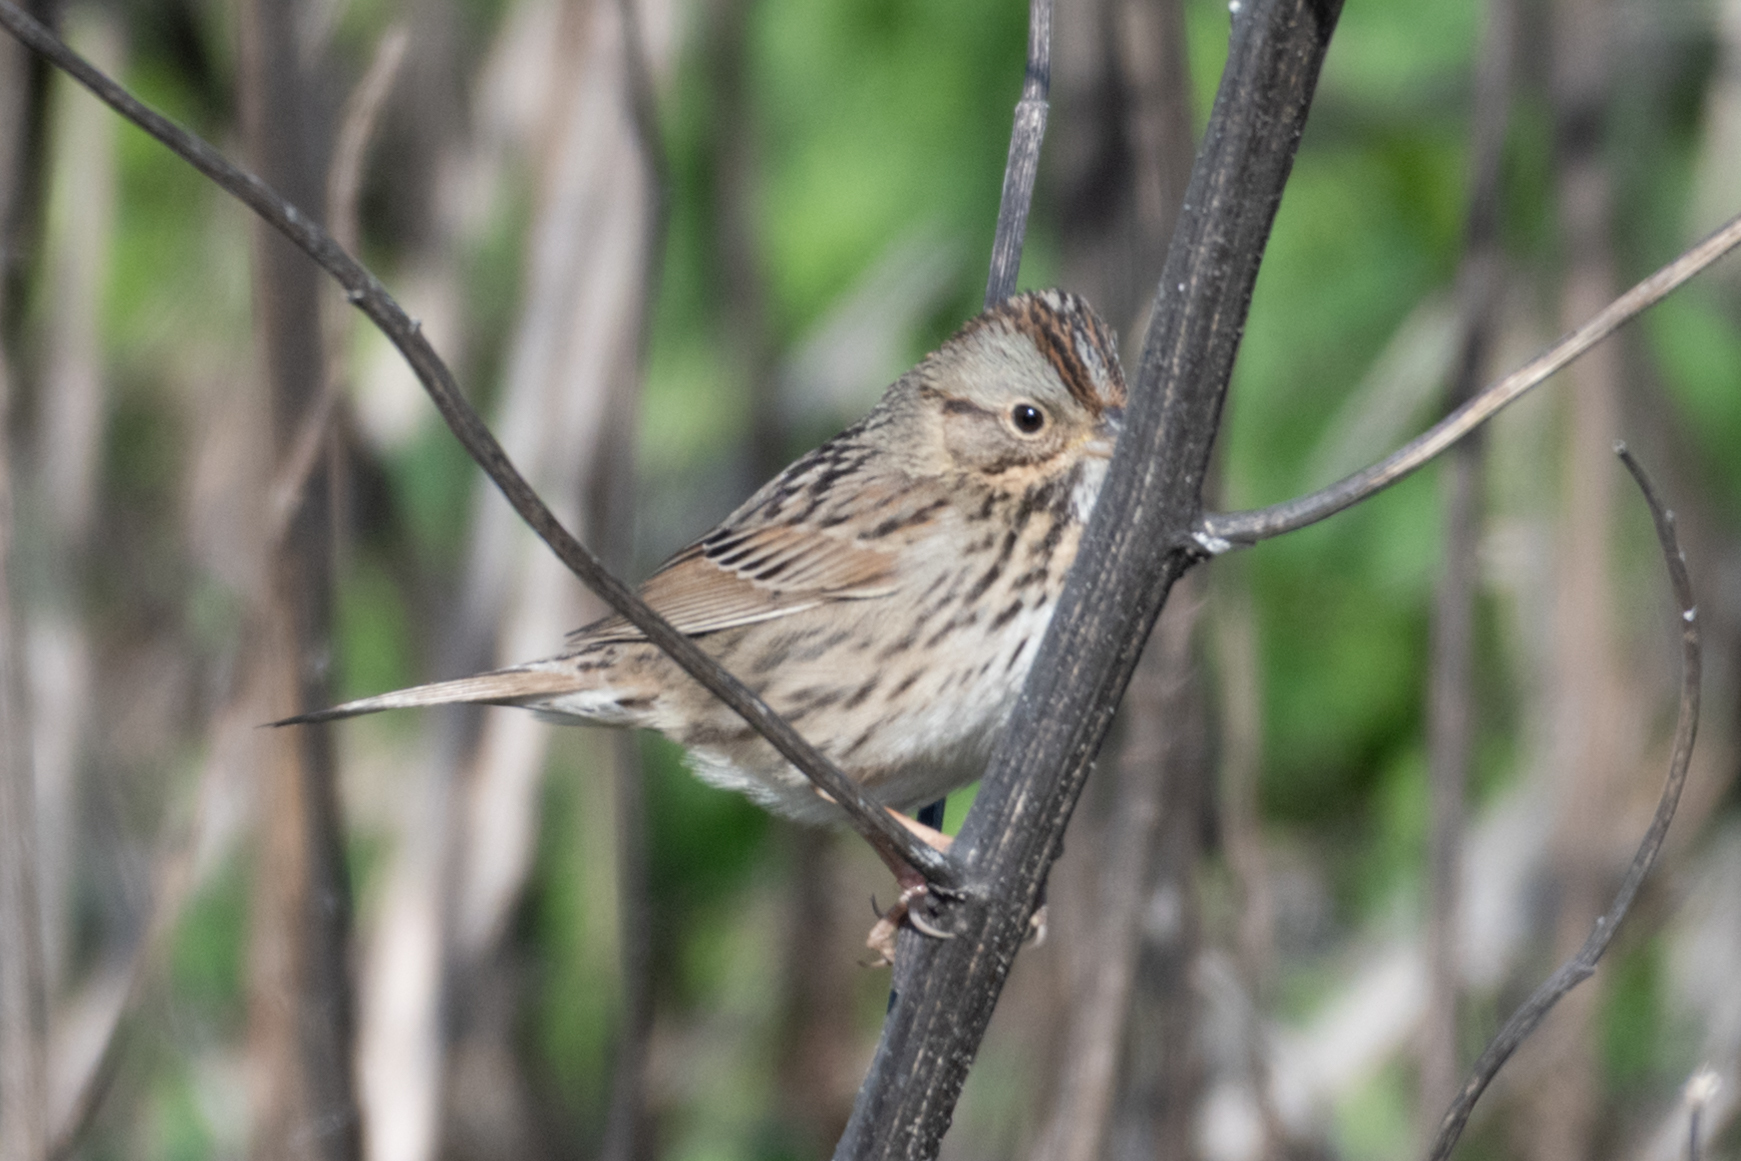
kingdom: Animalia
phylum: Chordata
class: Aves
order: Passeriformes
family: Passerellidae
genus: Melospiza
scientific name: Melospiza lincolnii
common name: Lincoln's sparrow
